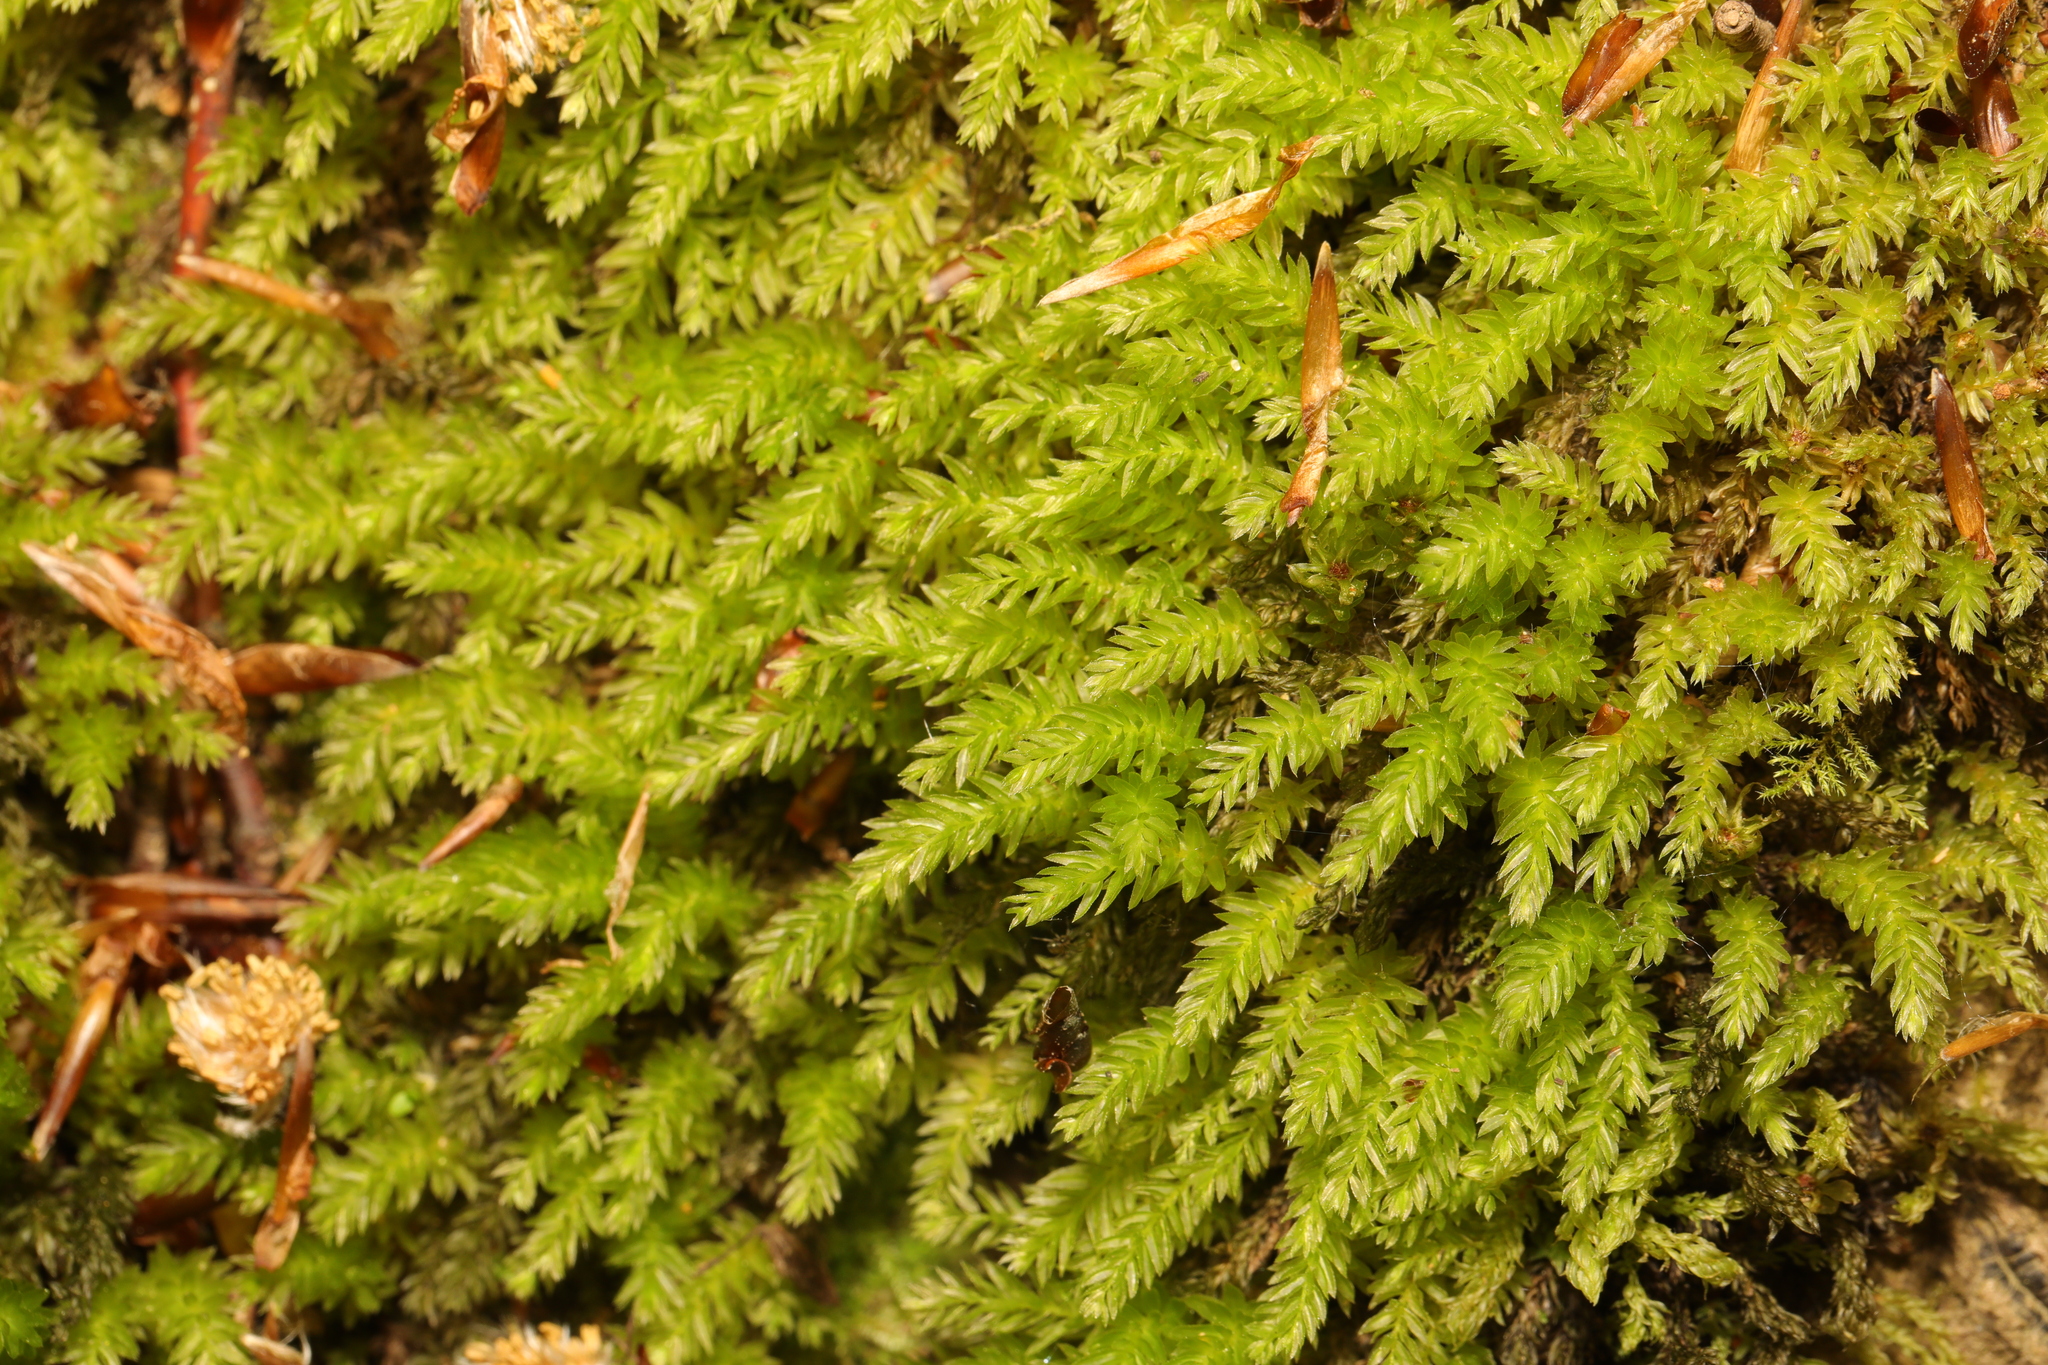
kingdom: Plantae
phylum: Bryophyta
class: Bryopsida
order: Bryales
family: Mniaceae
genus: Mnium
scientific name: Mnium hornum
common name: Swan's-neck leafy moss
